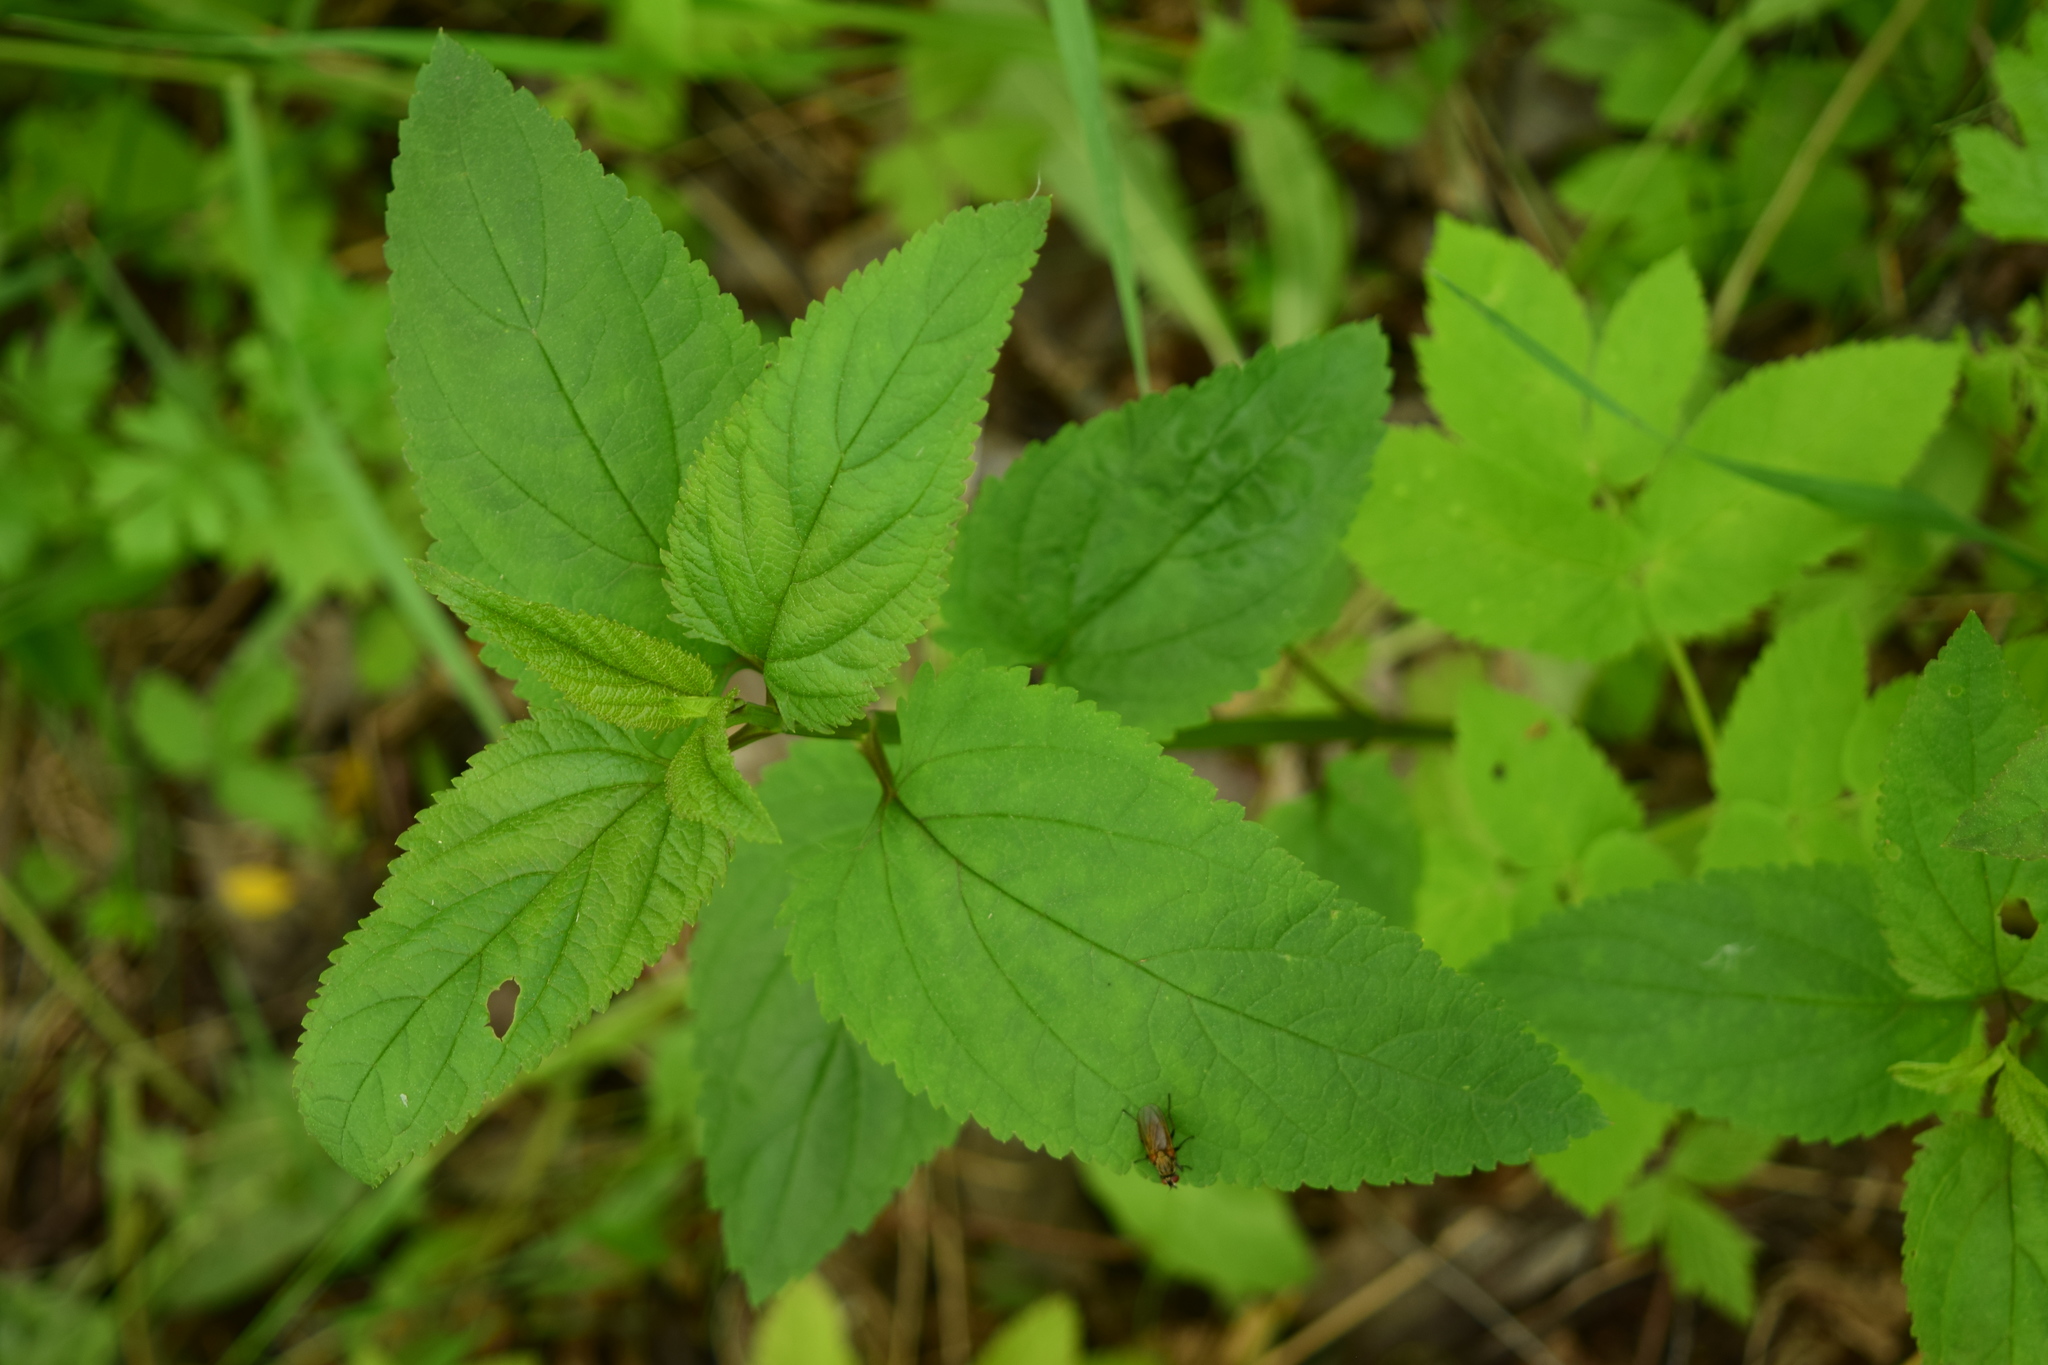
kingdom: Plantae
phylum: Tracheophyta
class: Magnoliopsida
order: Lamiales
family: Scrophulariaceae
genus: Scrophularia
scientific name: Scrophularia nodosa
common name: Common figwort
